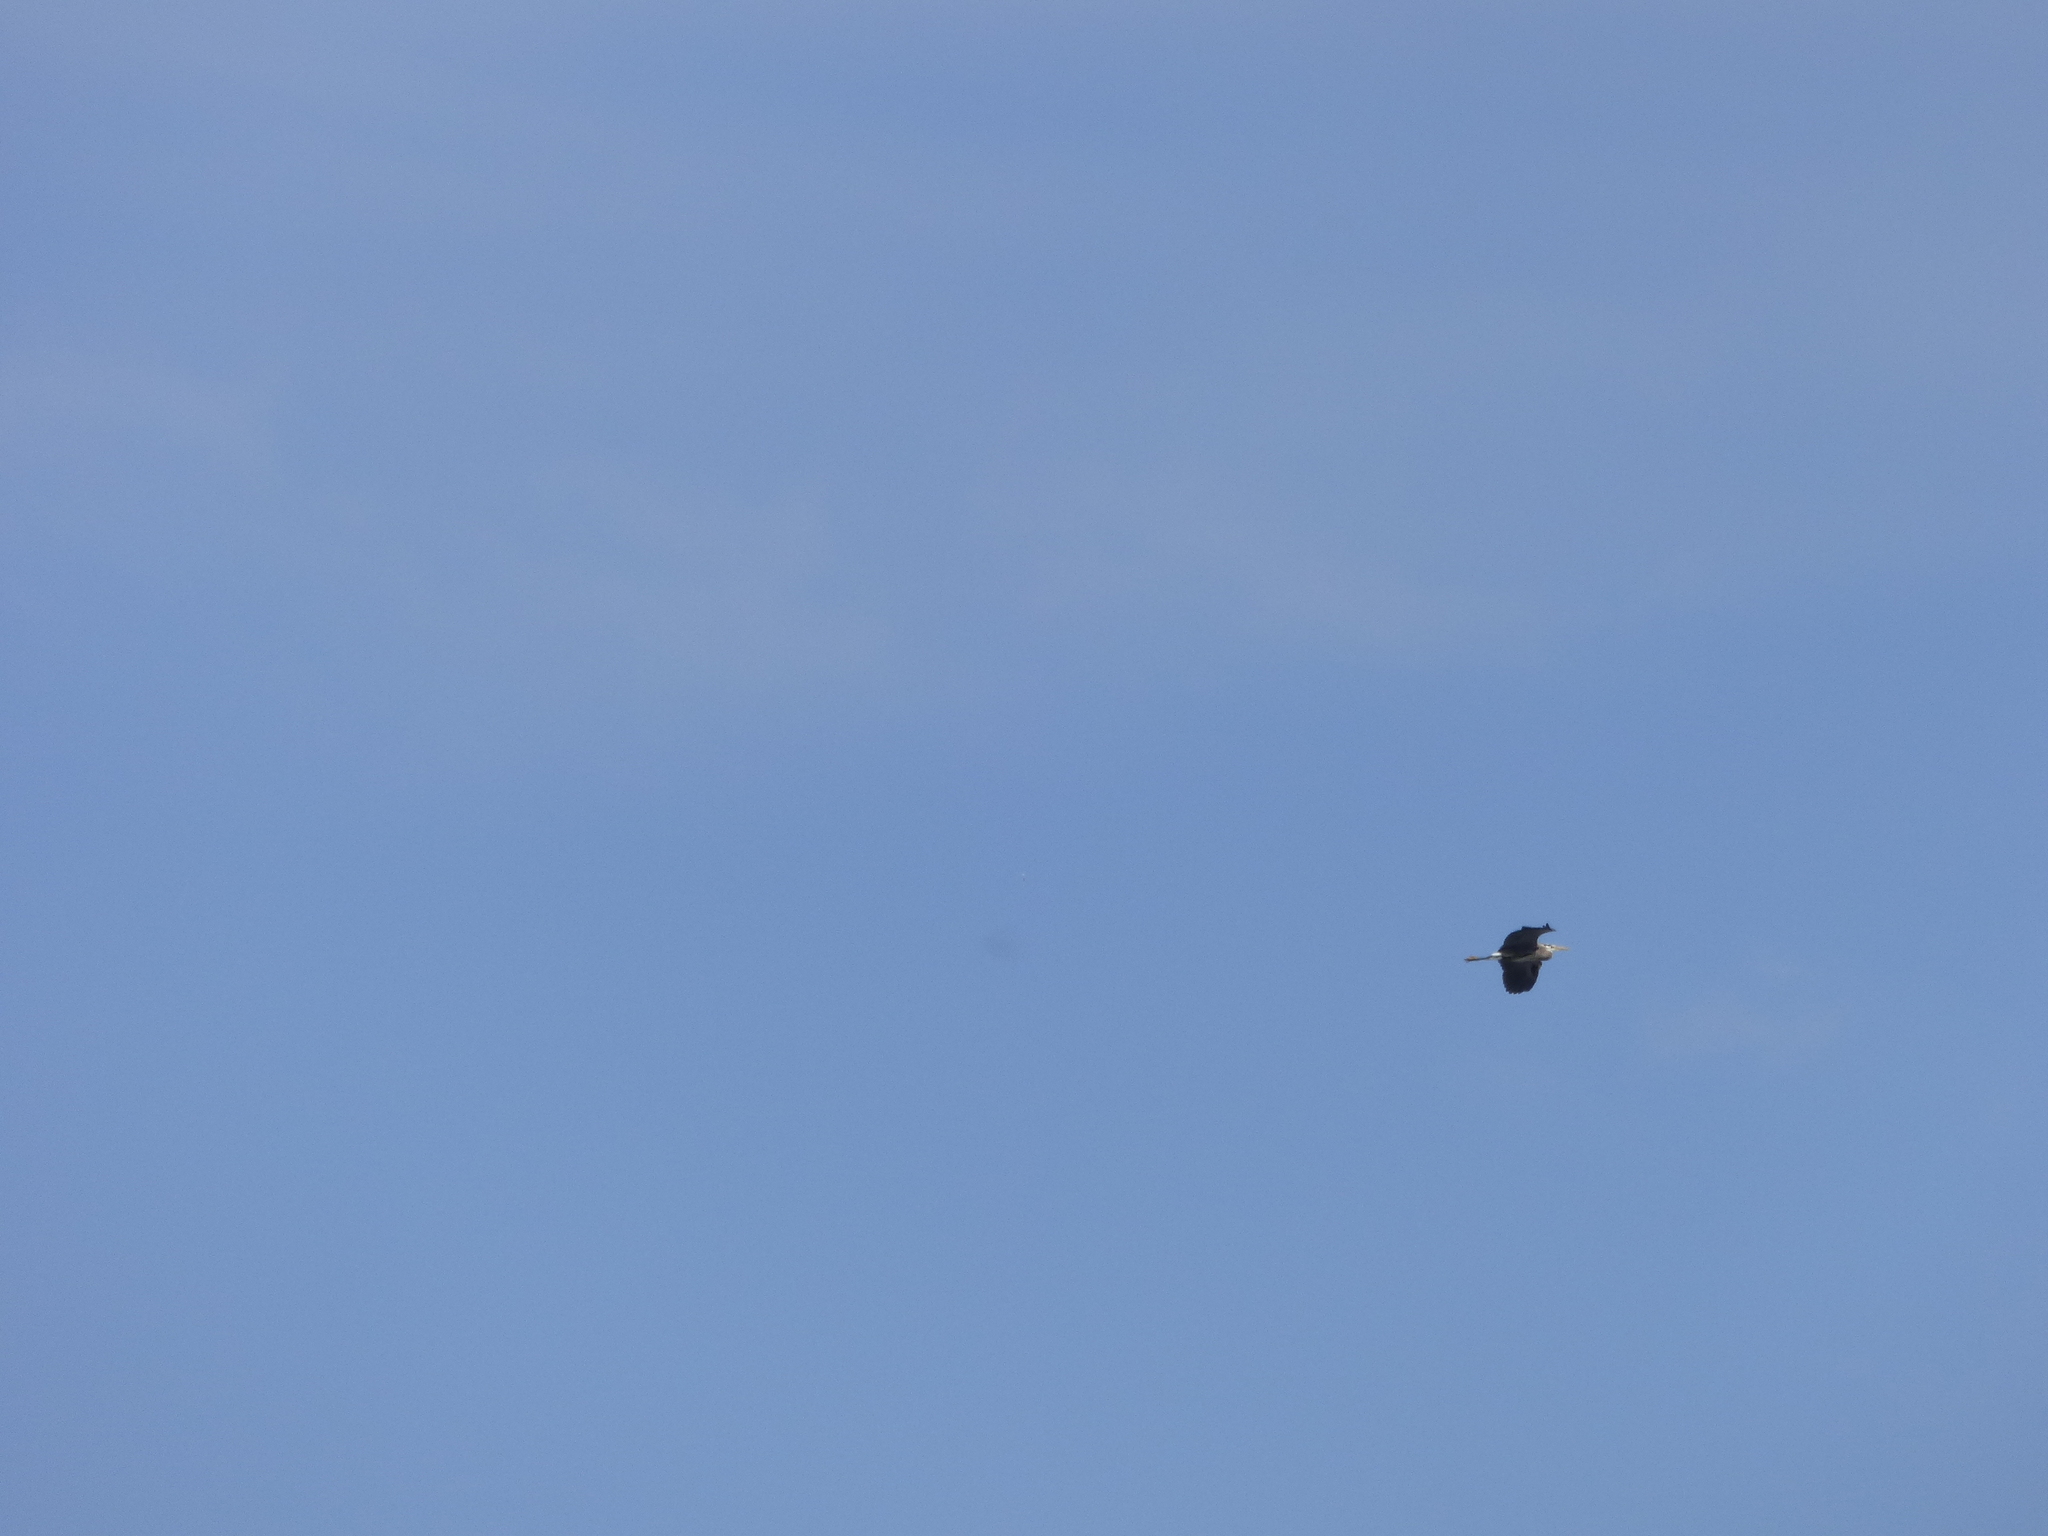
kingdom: Animalia
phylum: Chordata
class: Aves
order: Pelecaniformes
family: Ardeidae
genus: Ardea
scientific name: Ardea herodias
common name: Great blue heron
